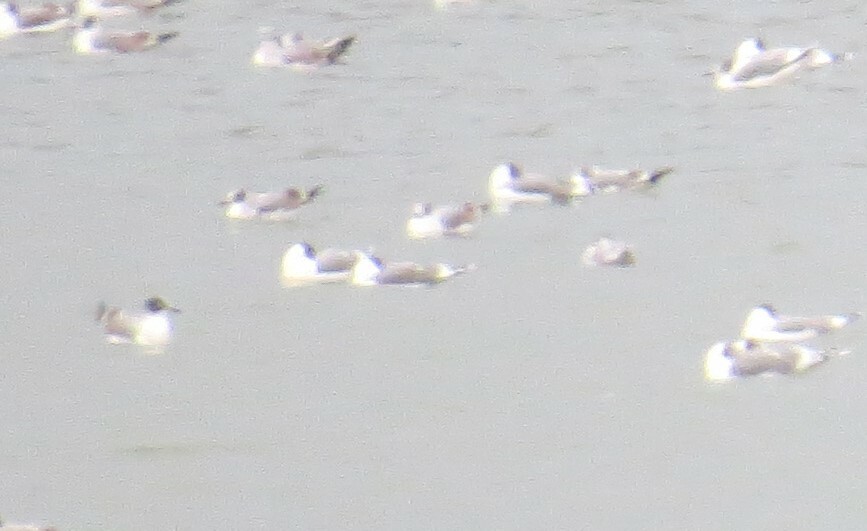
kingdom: Animalia
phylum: Chordata
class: Aves
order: Charadriiformes
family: Laridae
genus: Leucophaeus
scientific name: Leucophaeus pipixcan
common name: Franklin's gull
